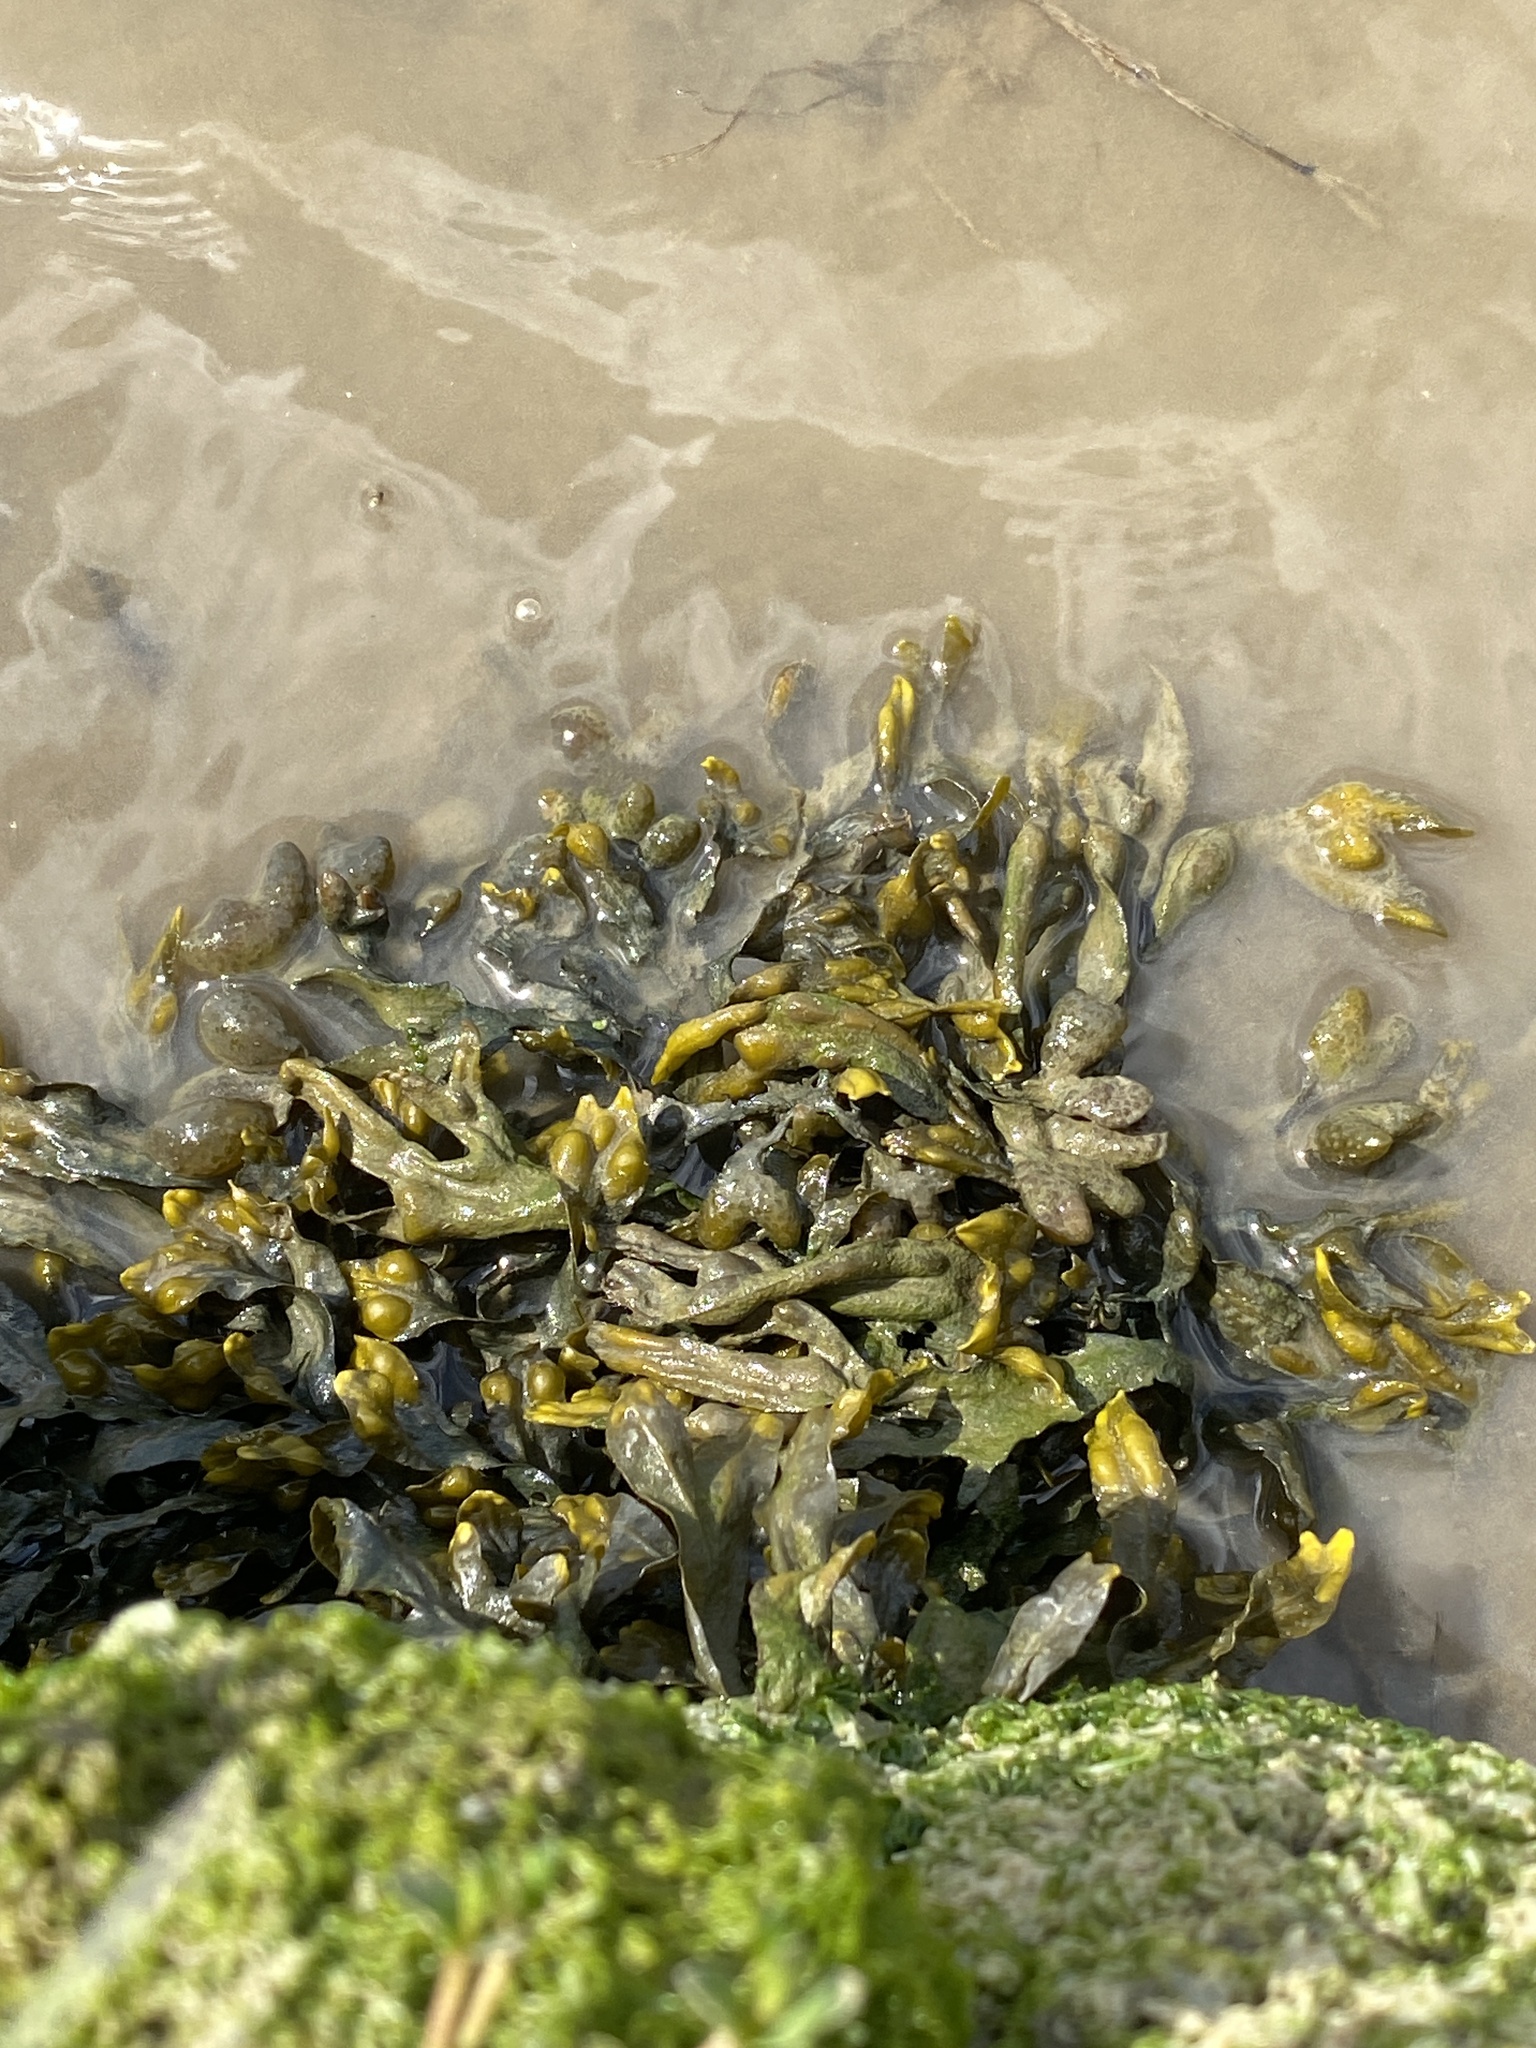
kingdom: Chromista
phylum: Ochrophyta
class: Phaeophyceae
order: Fucales
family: Fucaceae
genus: Fucus
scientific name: Fucus vesiculosus
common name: Bladder wrack
